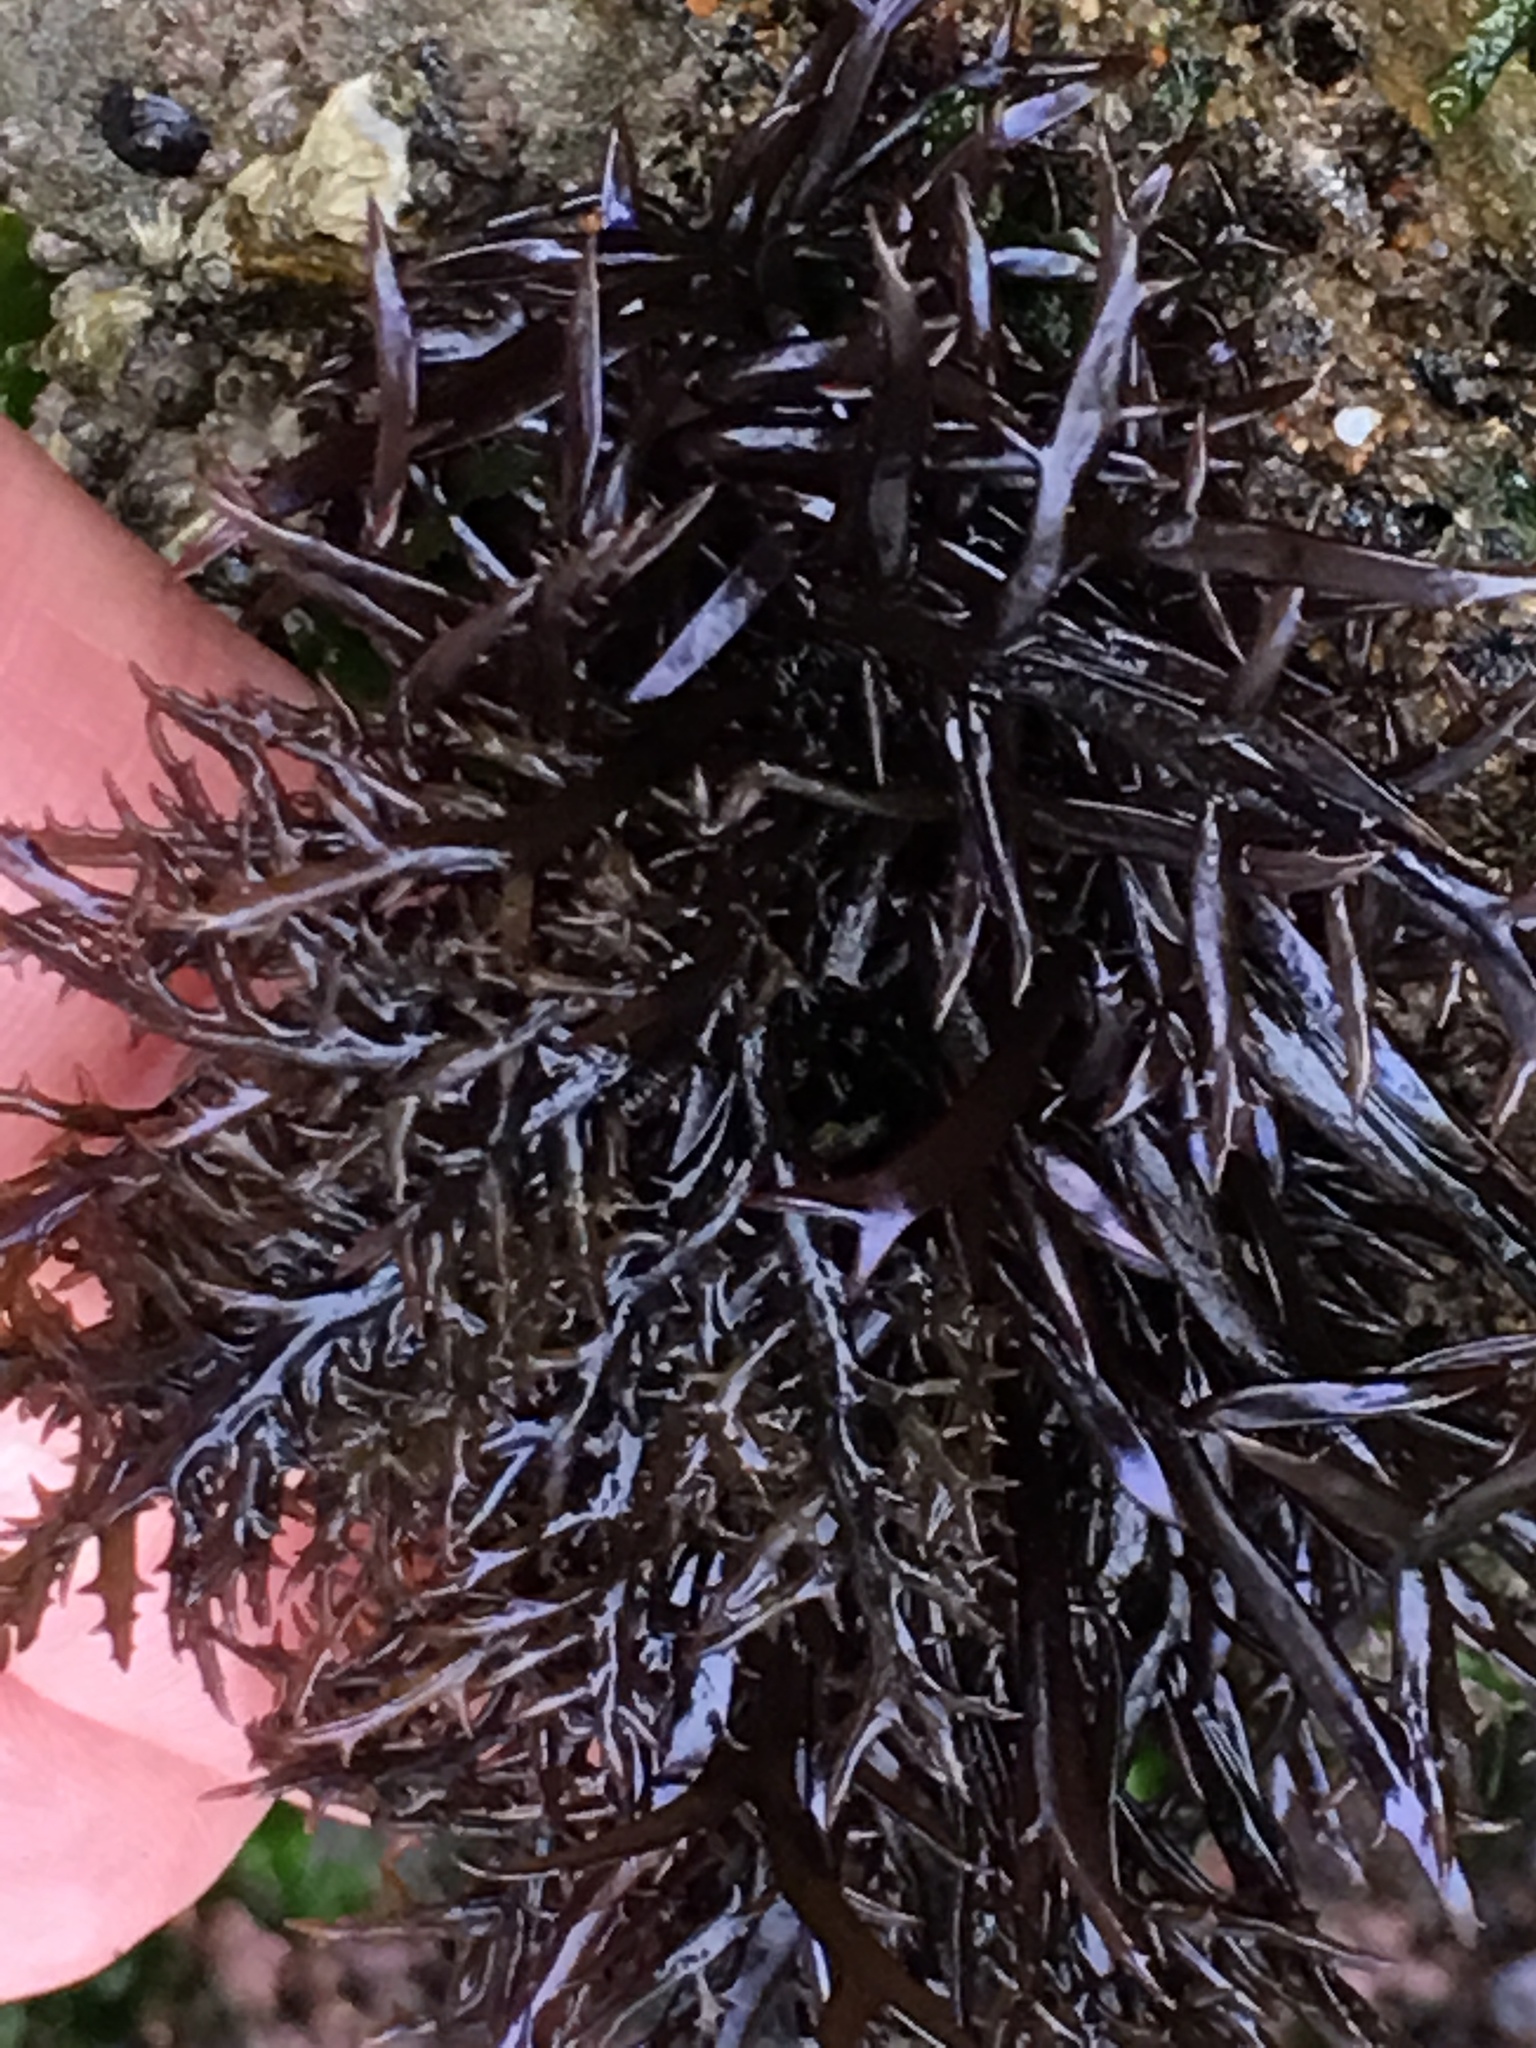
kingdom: Plantae
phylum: Rhodophyta
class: Florideophyceae
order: Gigartinales
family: Gigartinaceae
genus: Chondracanthus
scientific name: Chondracanthus canaliculatus
